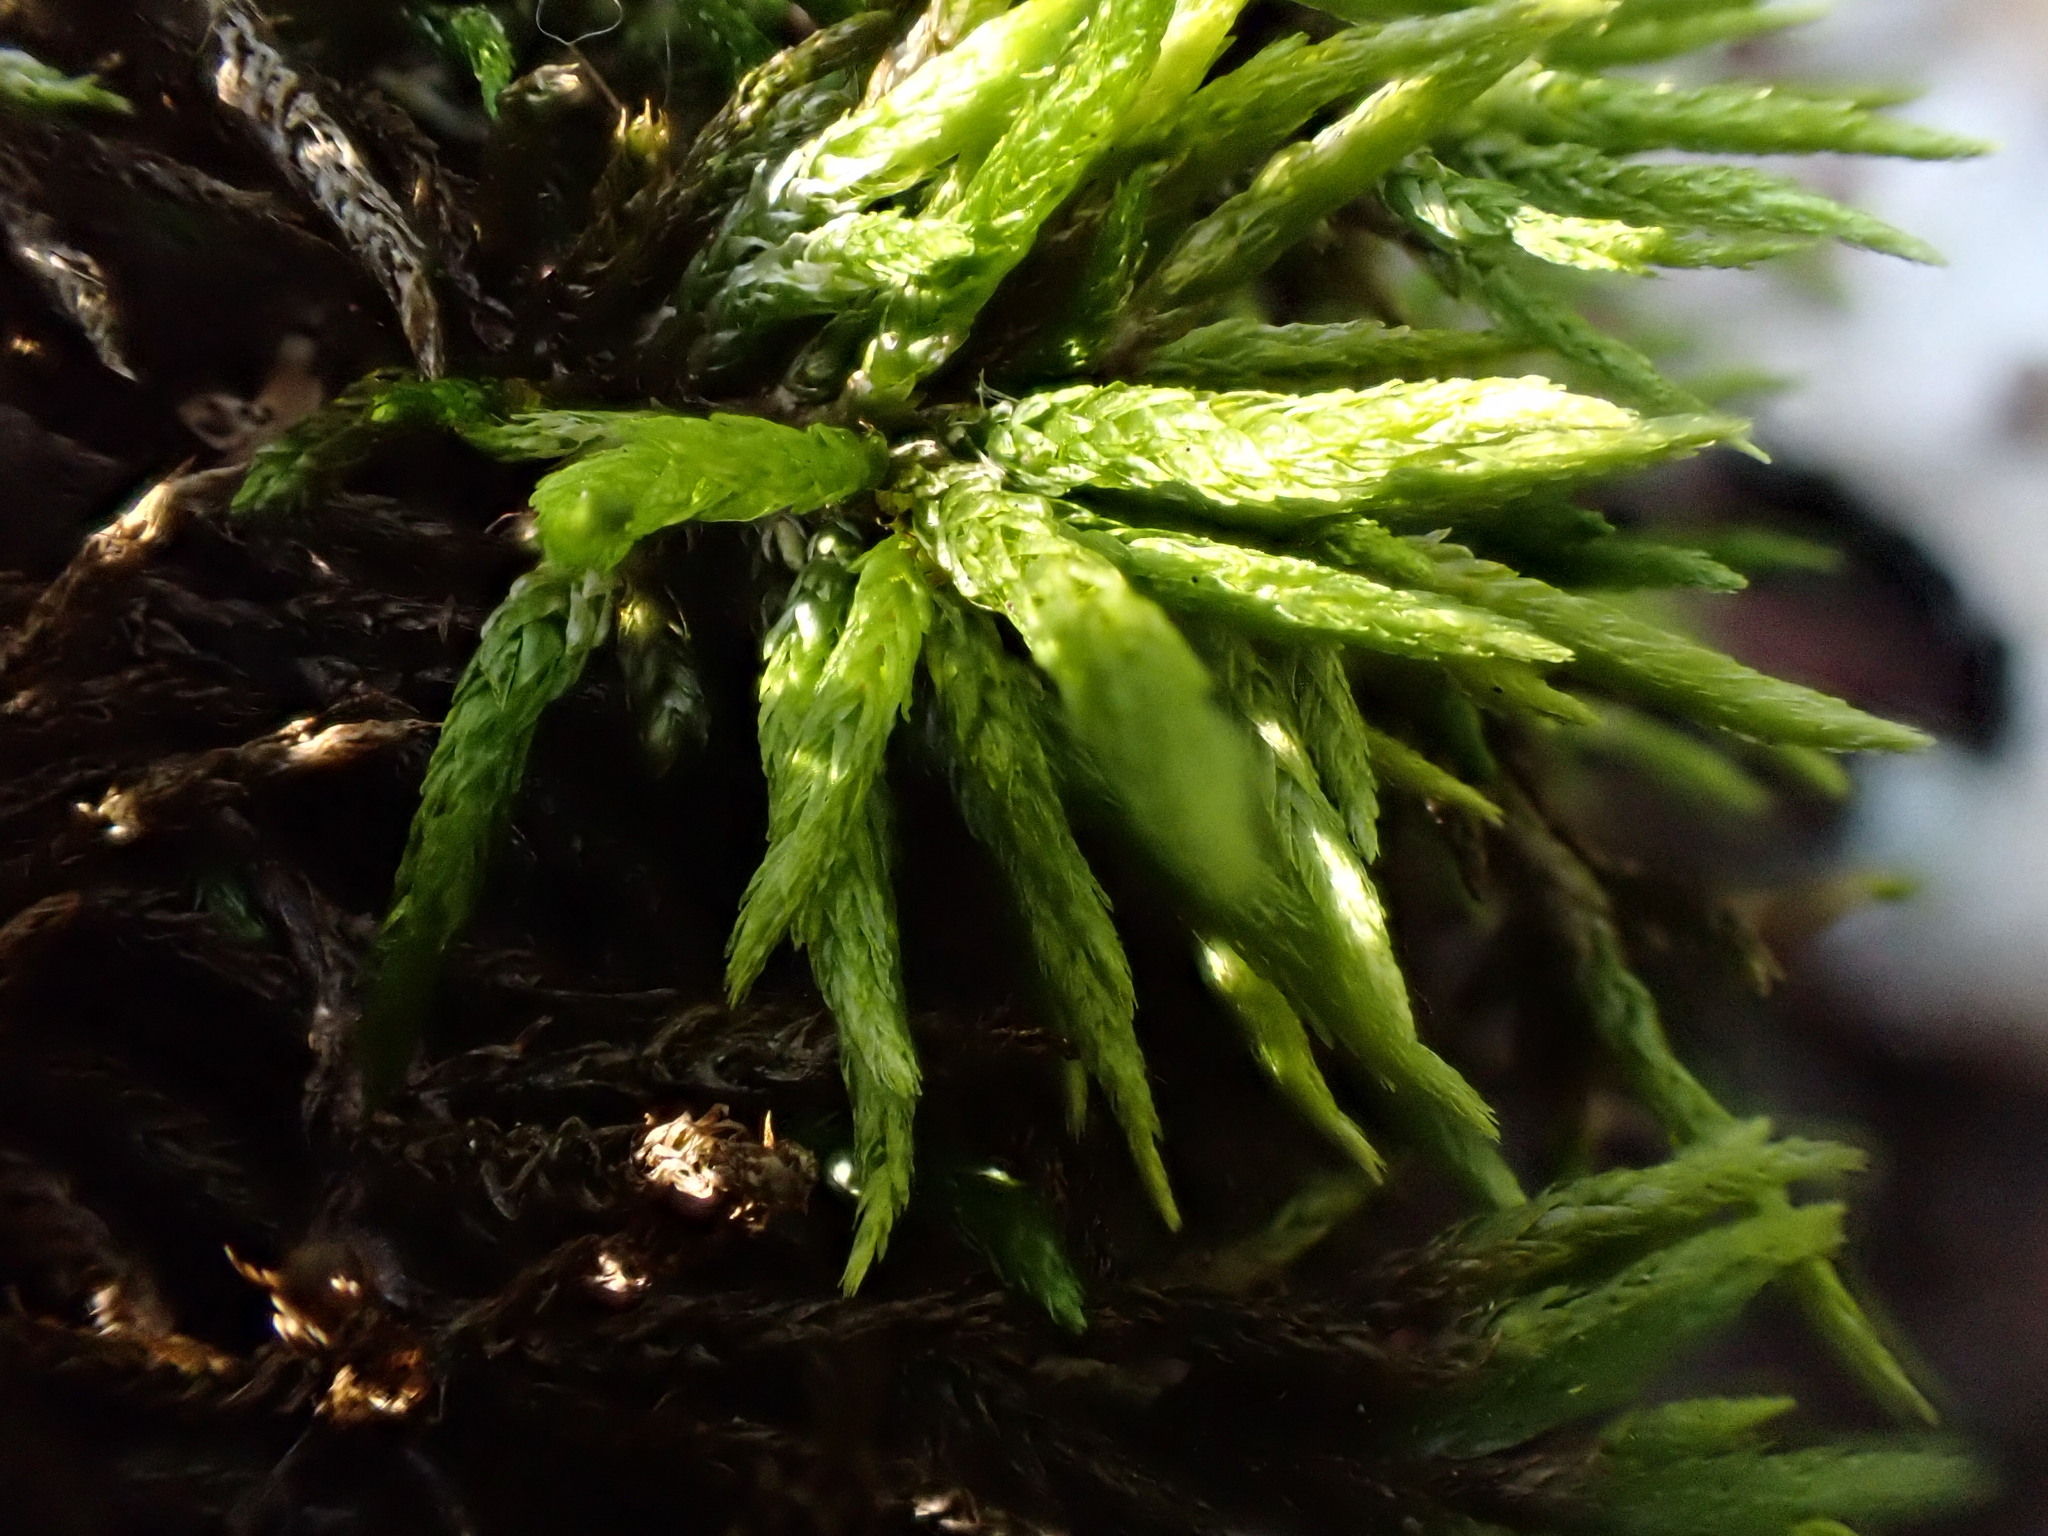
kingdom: Plantae
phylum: Bryophyta
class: Bryopsida
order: Hypnales
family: Climaciaceae
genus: Climacium
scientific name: Climacium dendroides
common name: Northern tree moss
